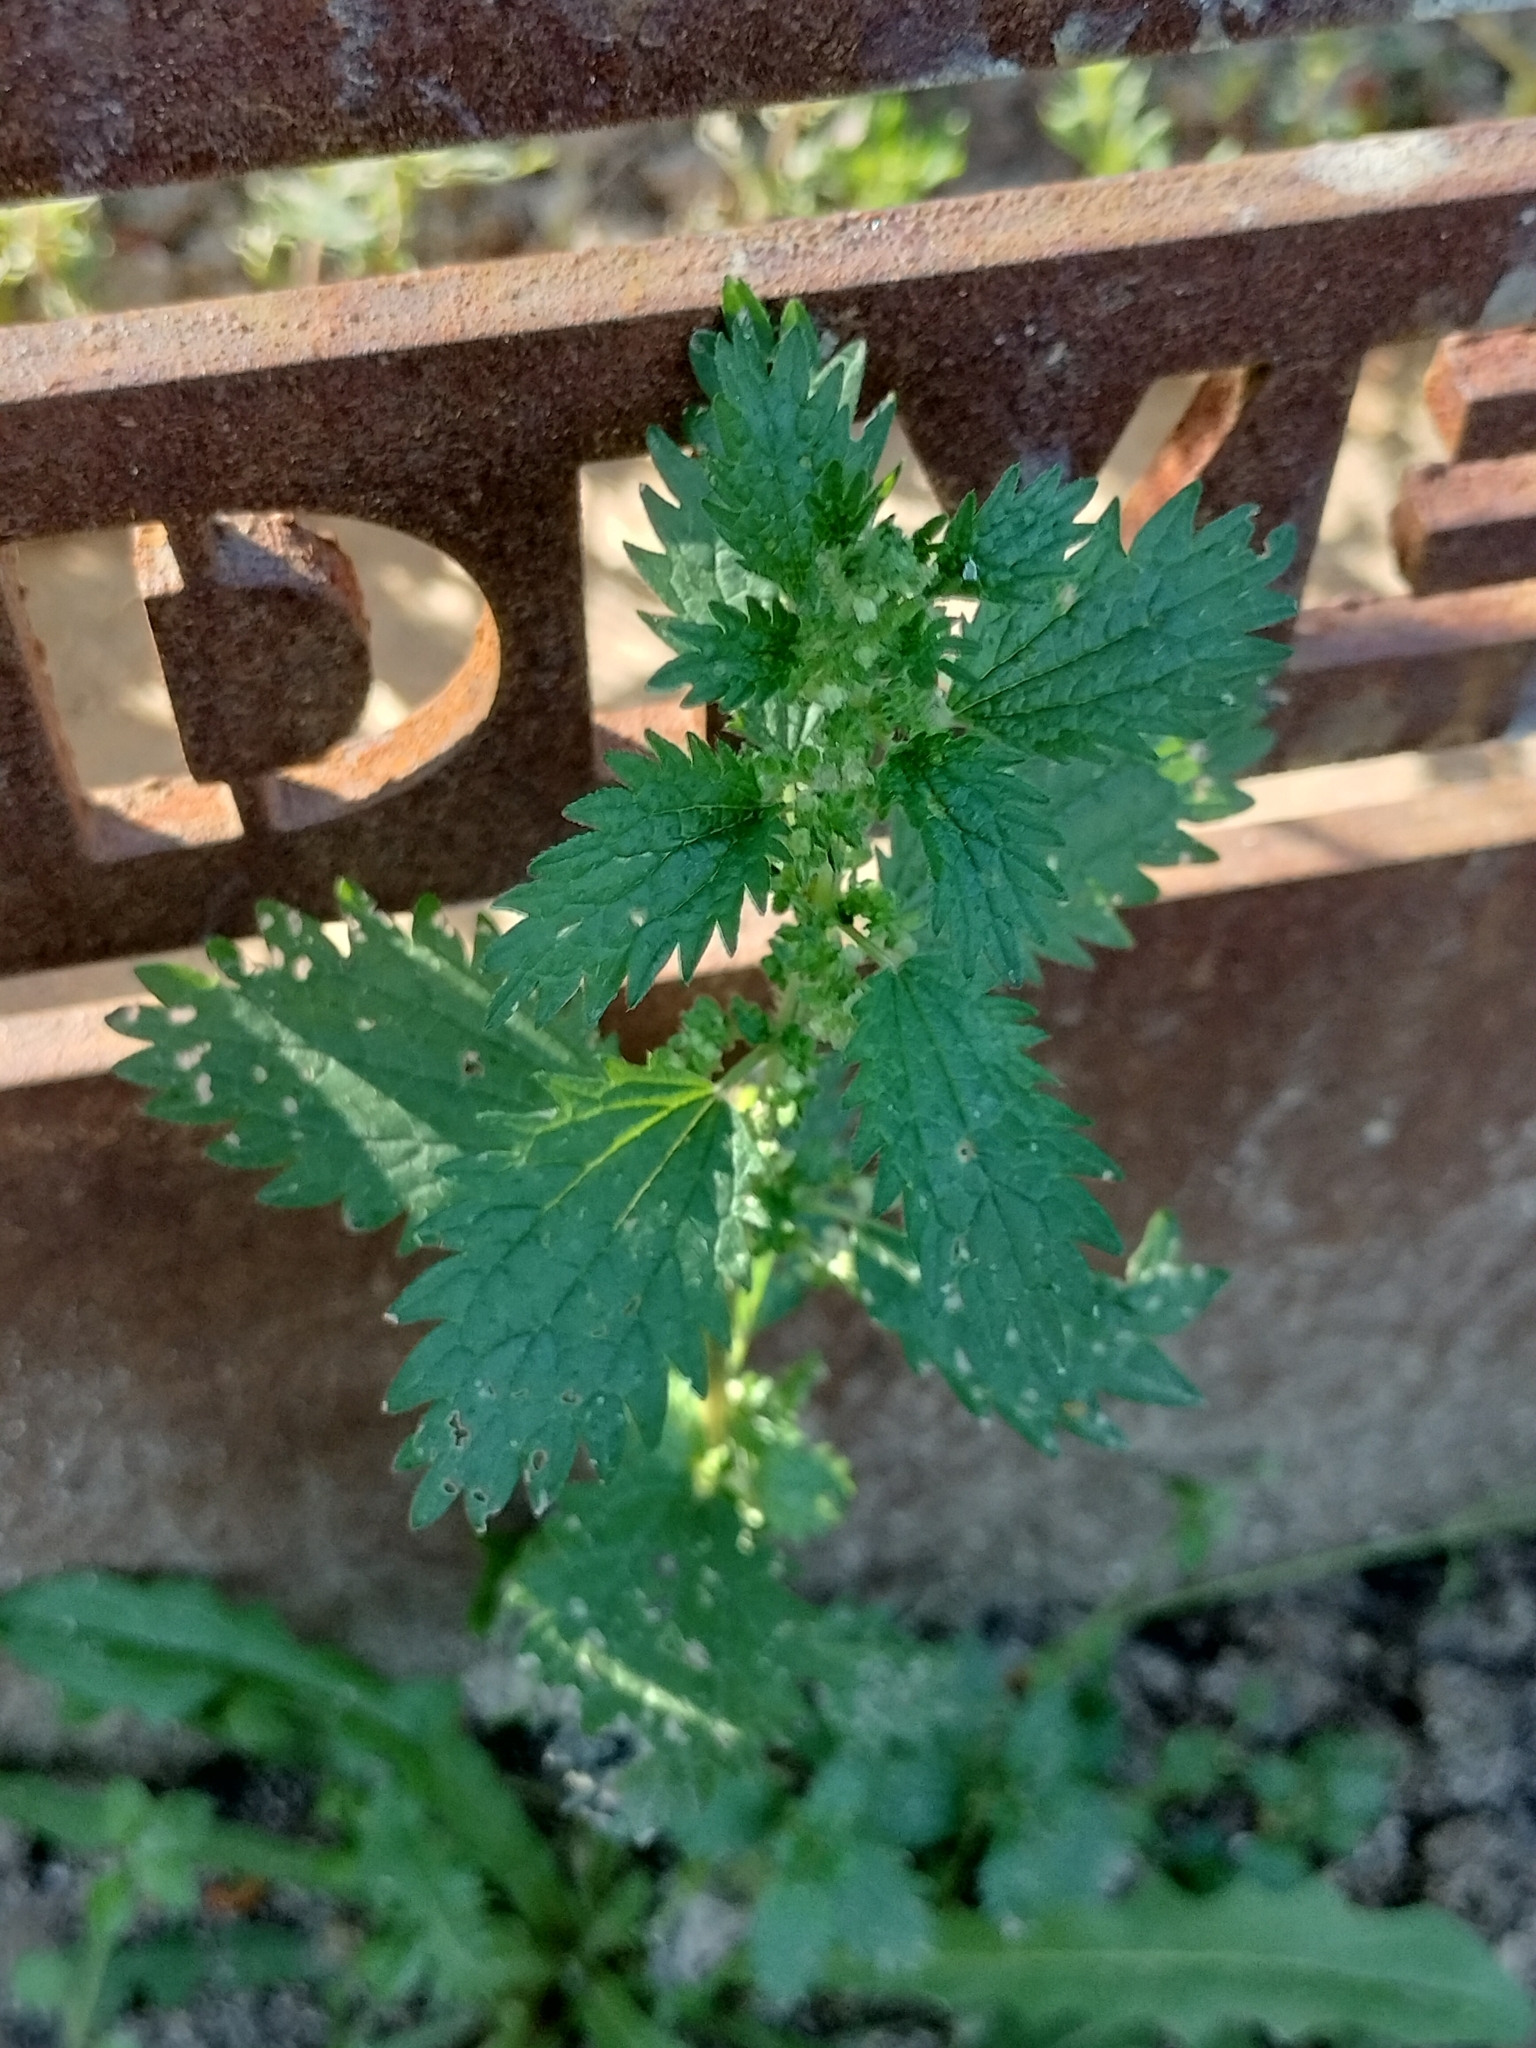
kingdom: Plantae
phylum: Tracheophyta
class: Magnoliopsida
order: Rosales
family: Urticaceae
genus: Urtica
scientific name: Urtica urens
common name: Dwarf nettle
